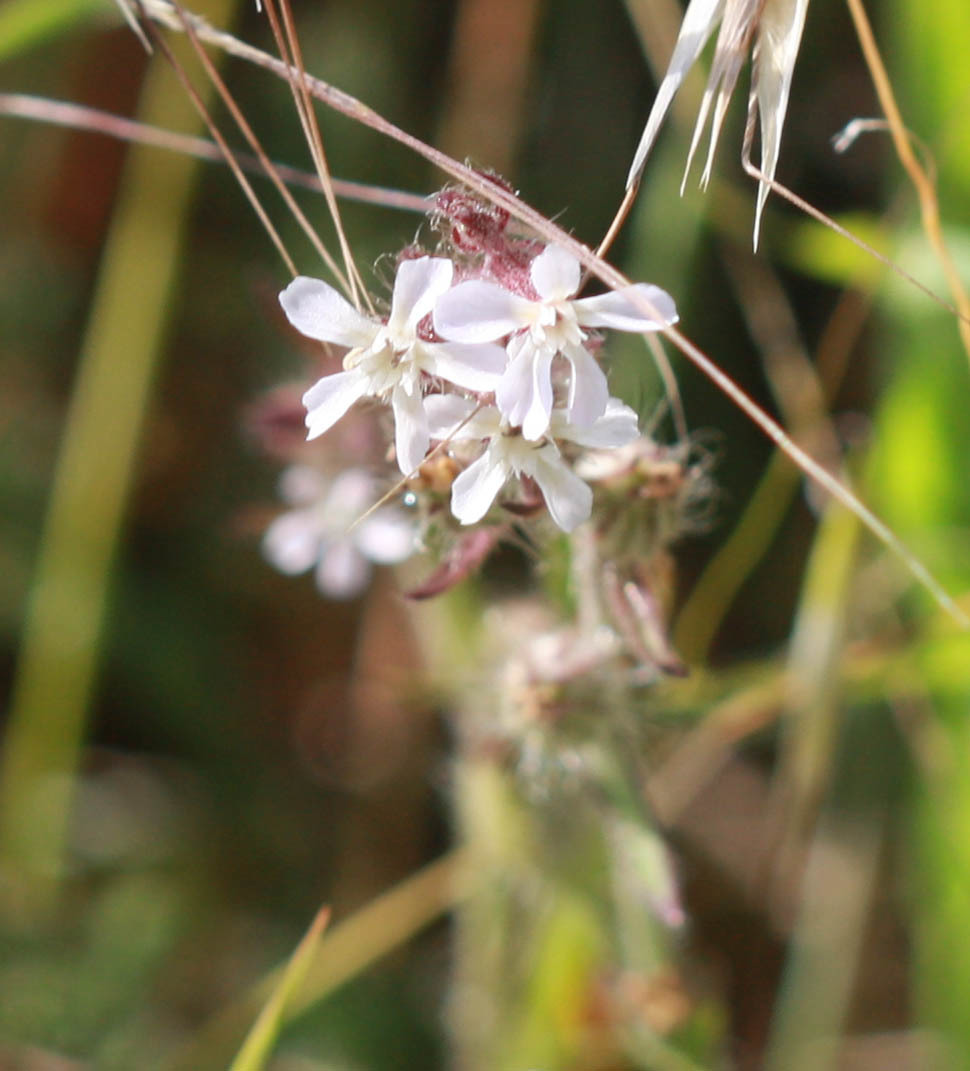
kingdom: Plantae
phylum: Tracheophyta
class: Magnoliopsida
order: Caryophyllales
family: Caryophyllaceae
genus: Silene
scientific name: Silene gallica
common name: Small-flowered catchfly
